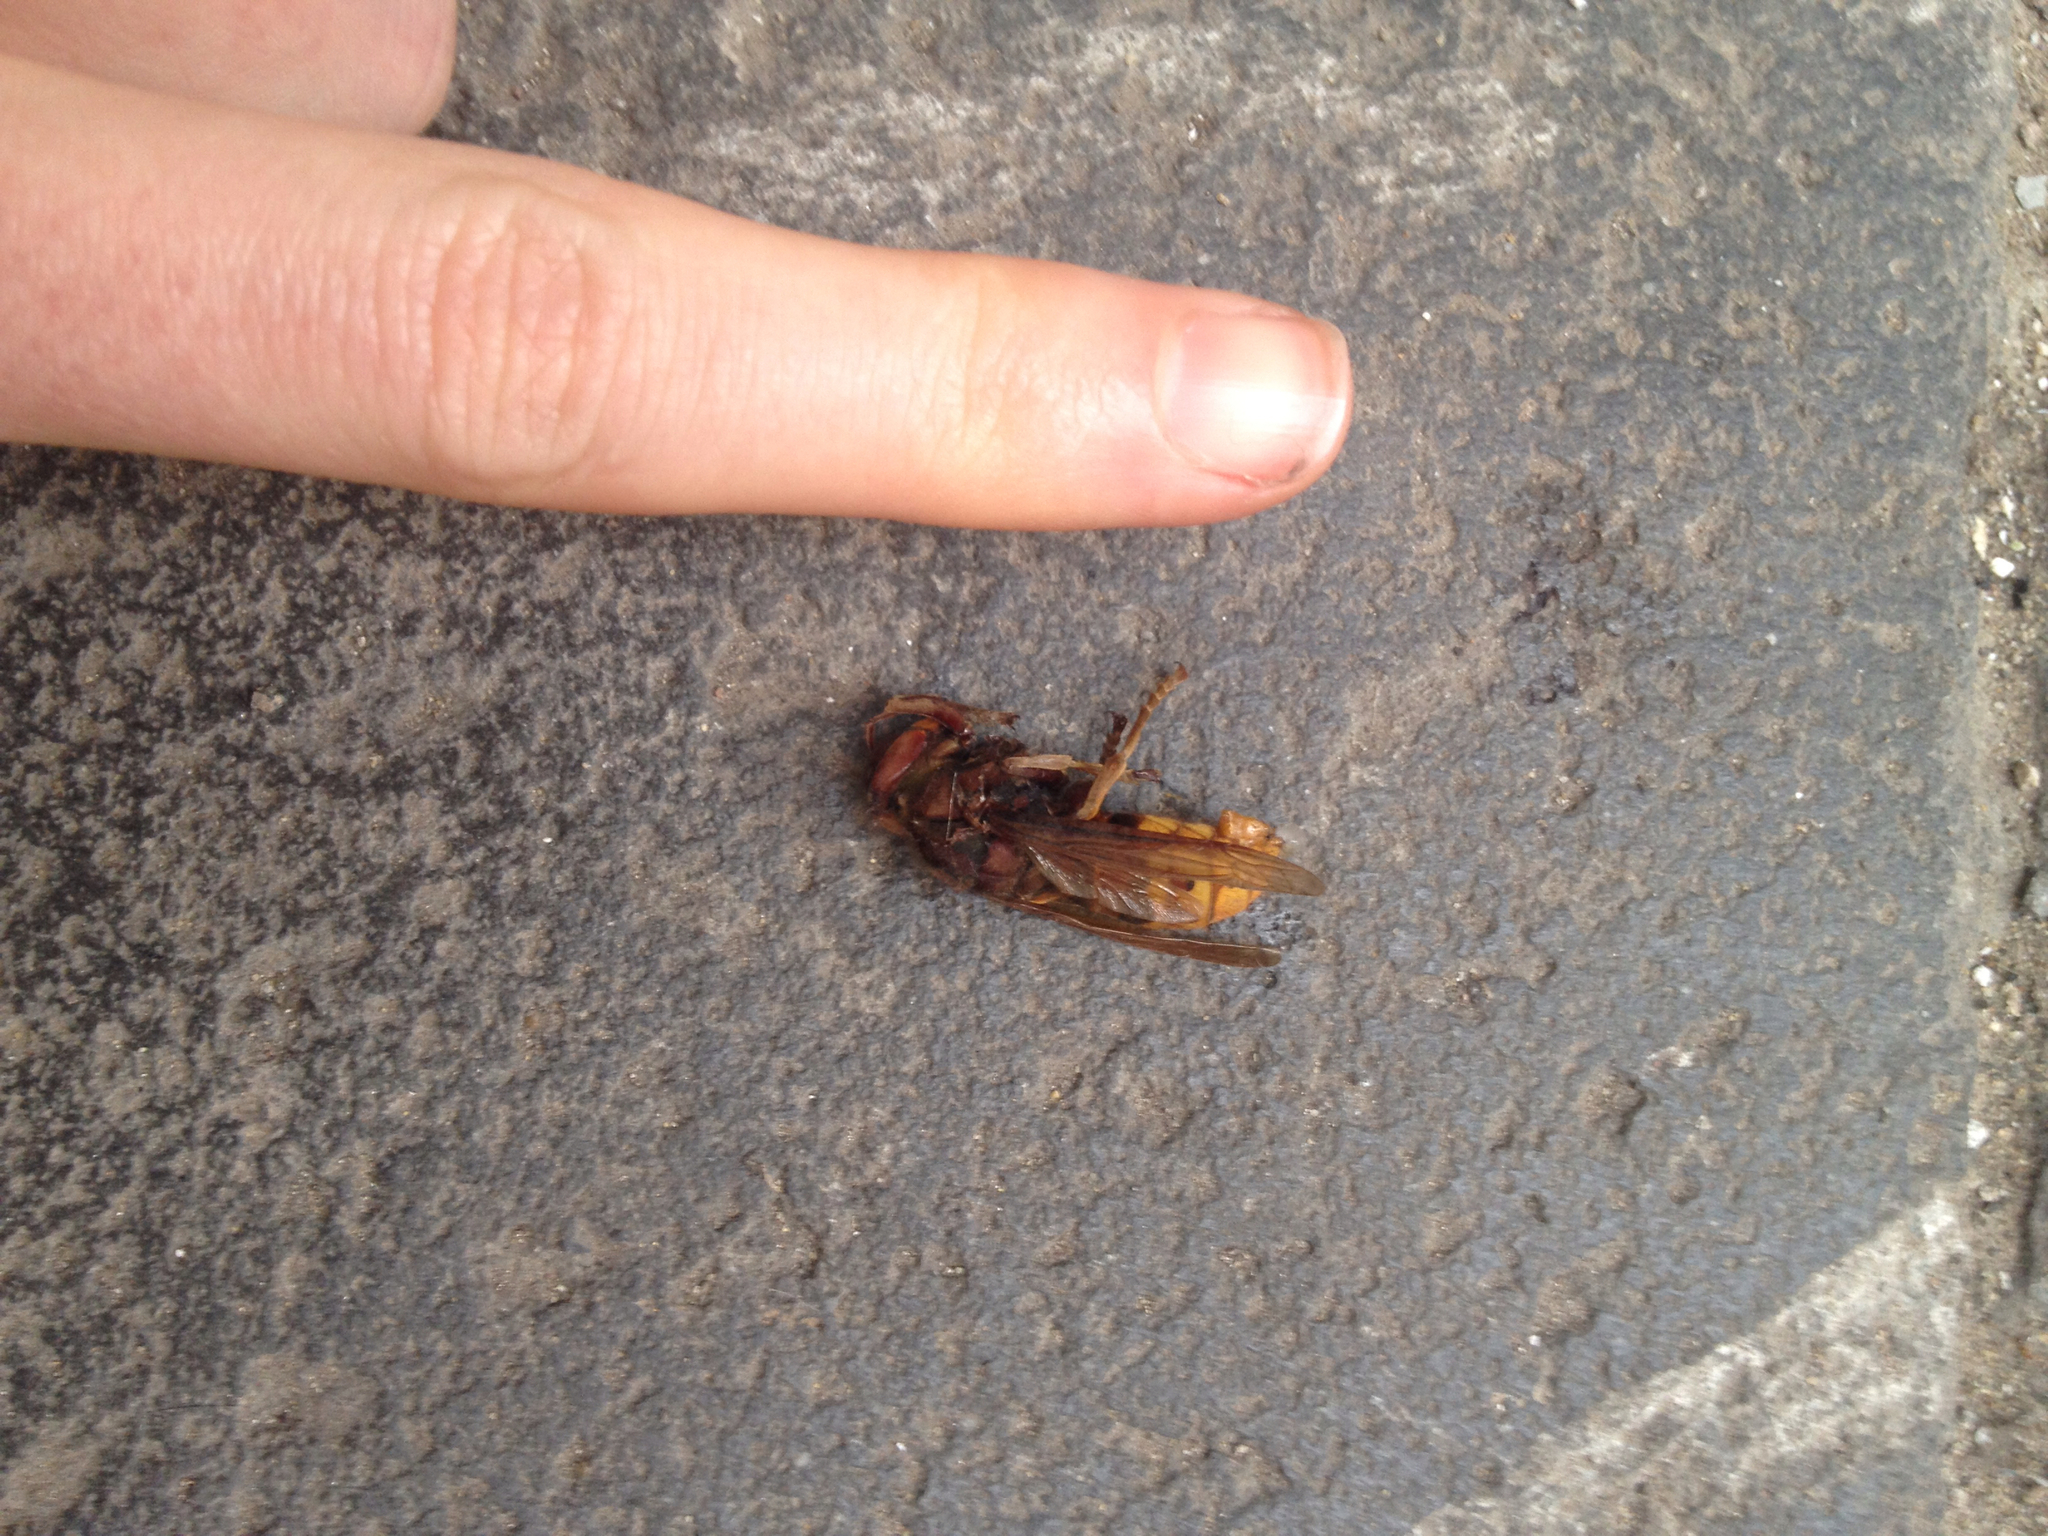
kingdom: Animalia
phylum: Arthropoda
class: Insecta
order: Hymenoptera
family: Vespidae
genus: Vespa
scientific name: Vespa crabro
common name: Hornet
